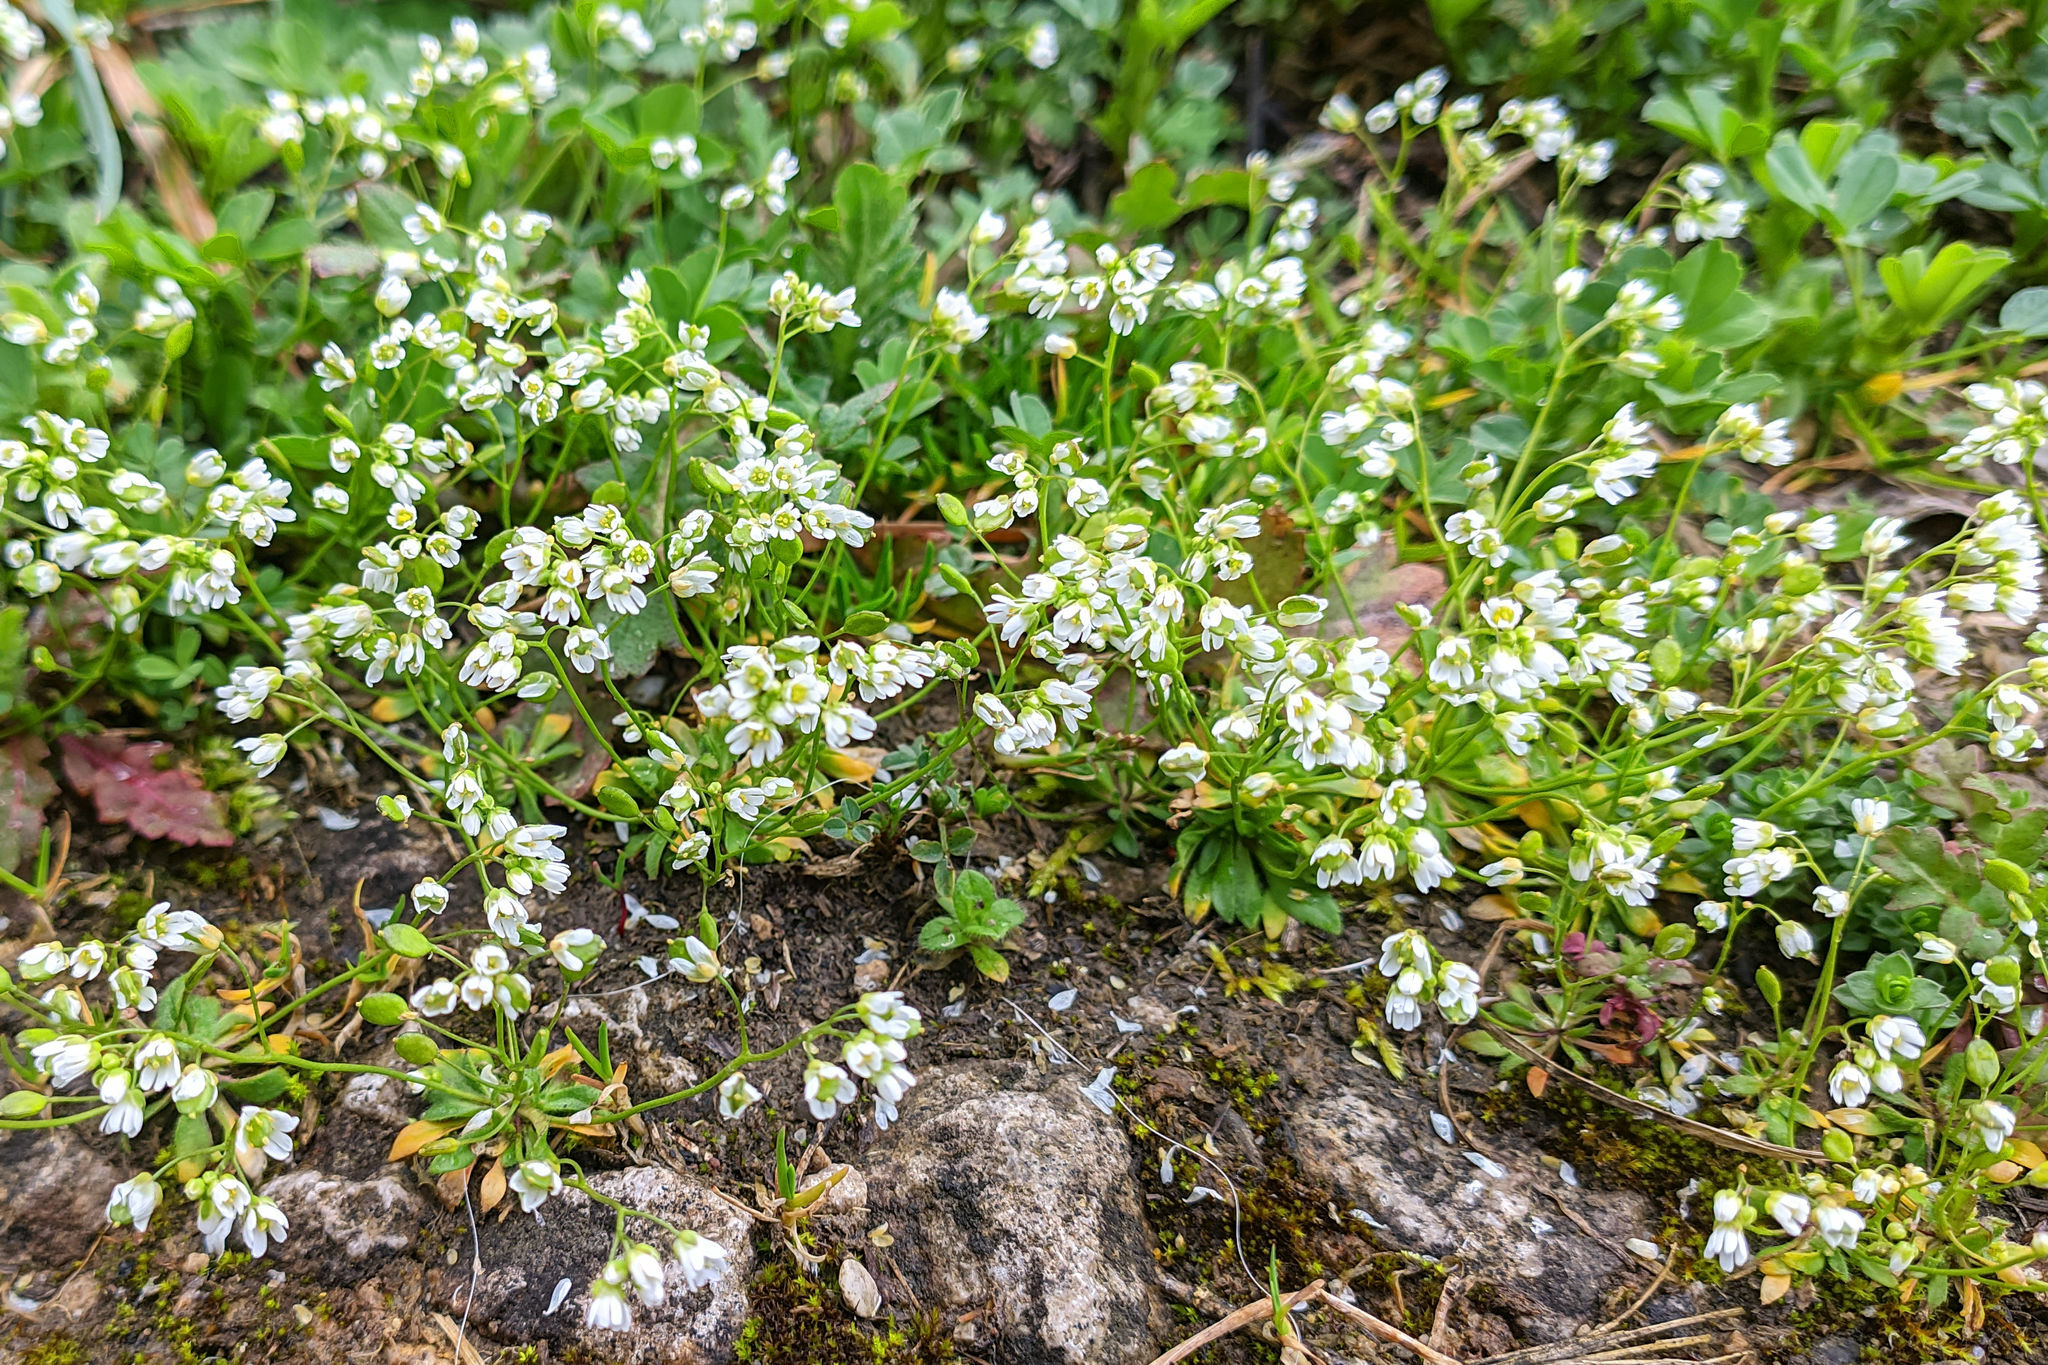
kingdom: Plantae
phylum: Tracheophyta
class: Magnoliopsida
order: Brassicales
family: Brassicaceae
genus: Draba
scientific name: Draba verna
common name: Spring draba
